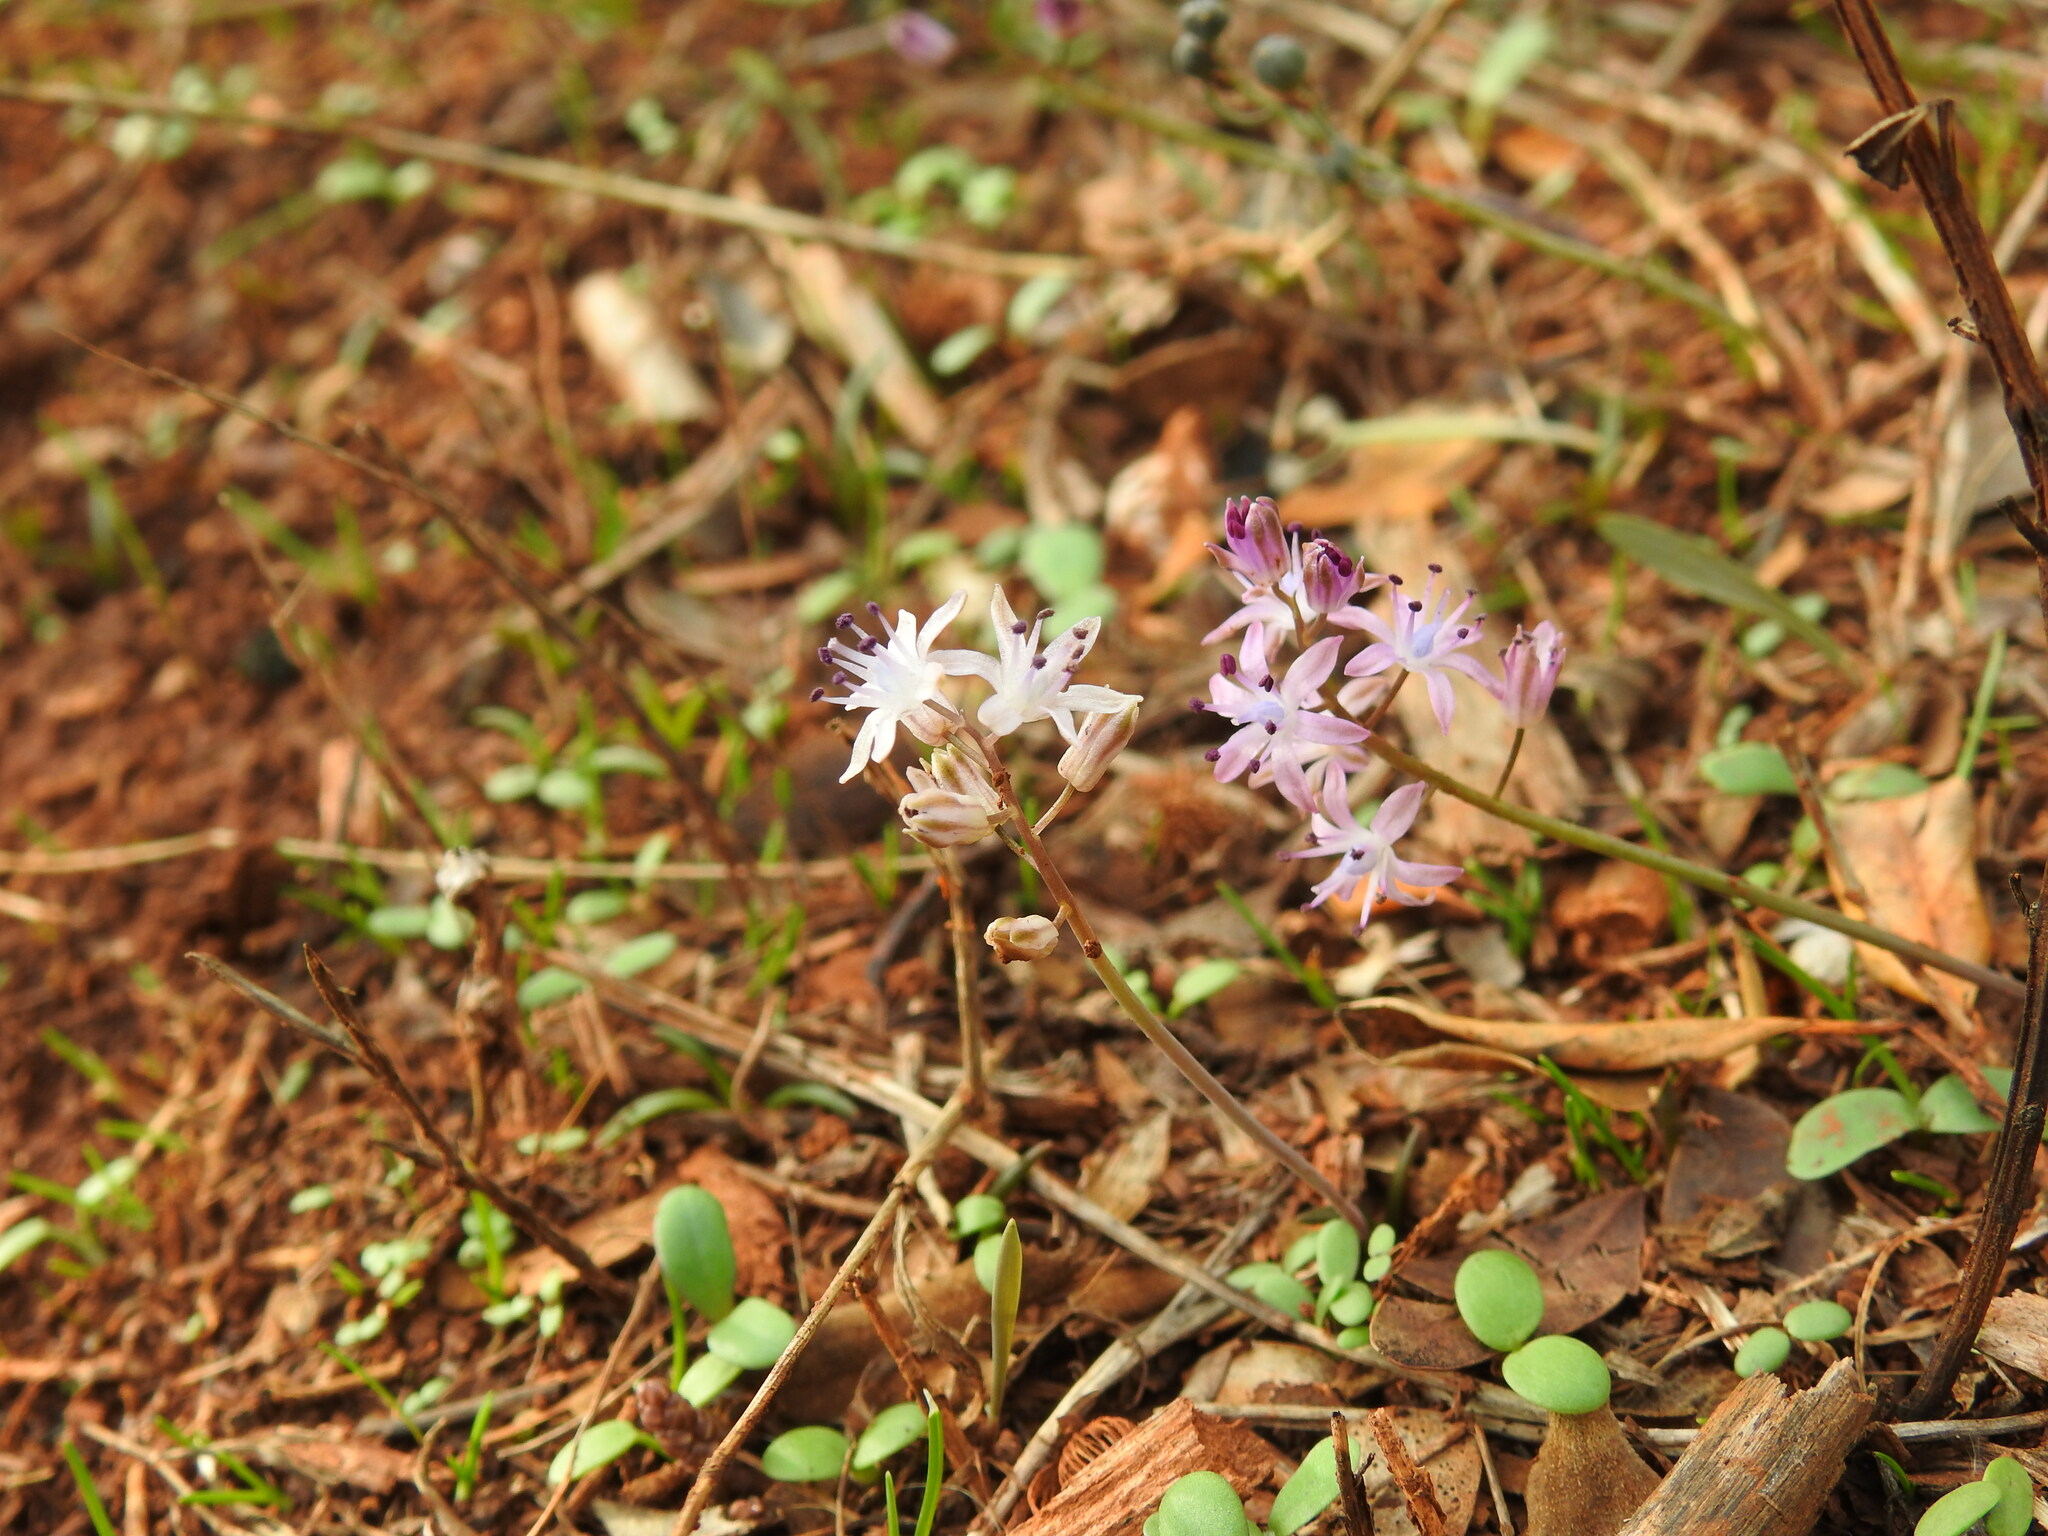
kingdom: Plantae
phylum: Tracheophyta
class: Liliopsida
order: Asparagales
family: Asparagaceae
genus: Prospero
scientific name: Prospero autumnale
